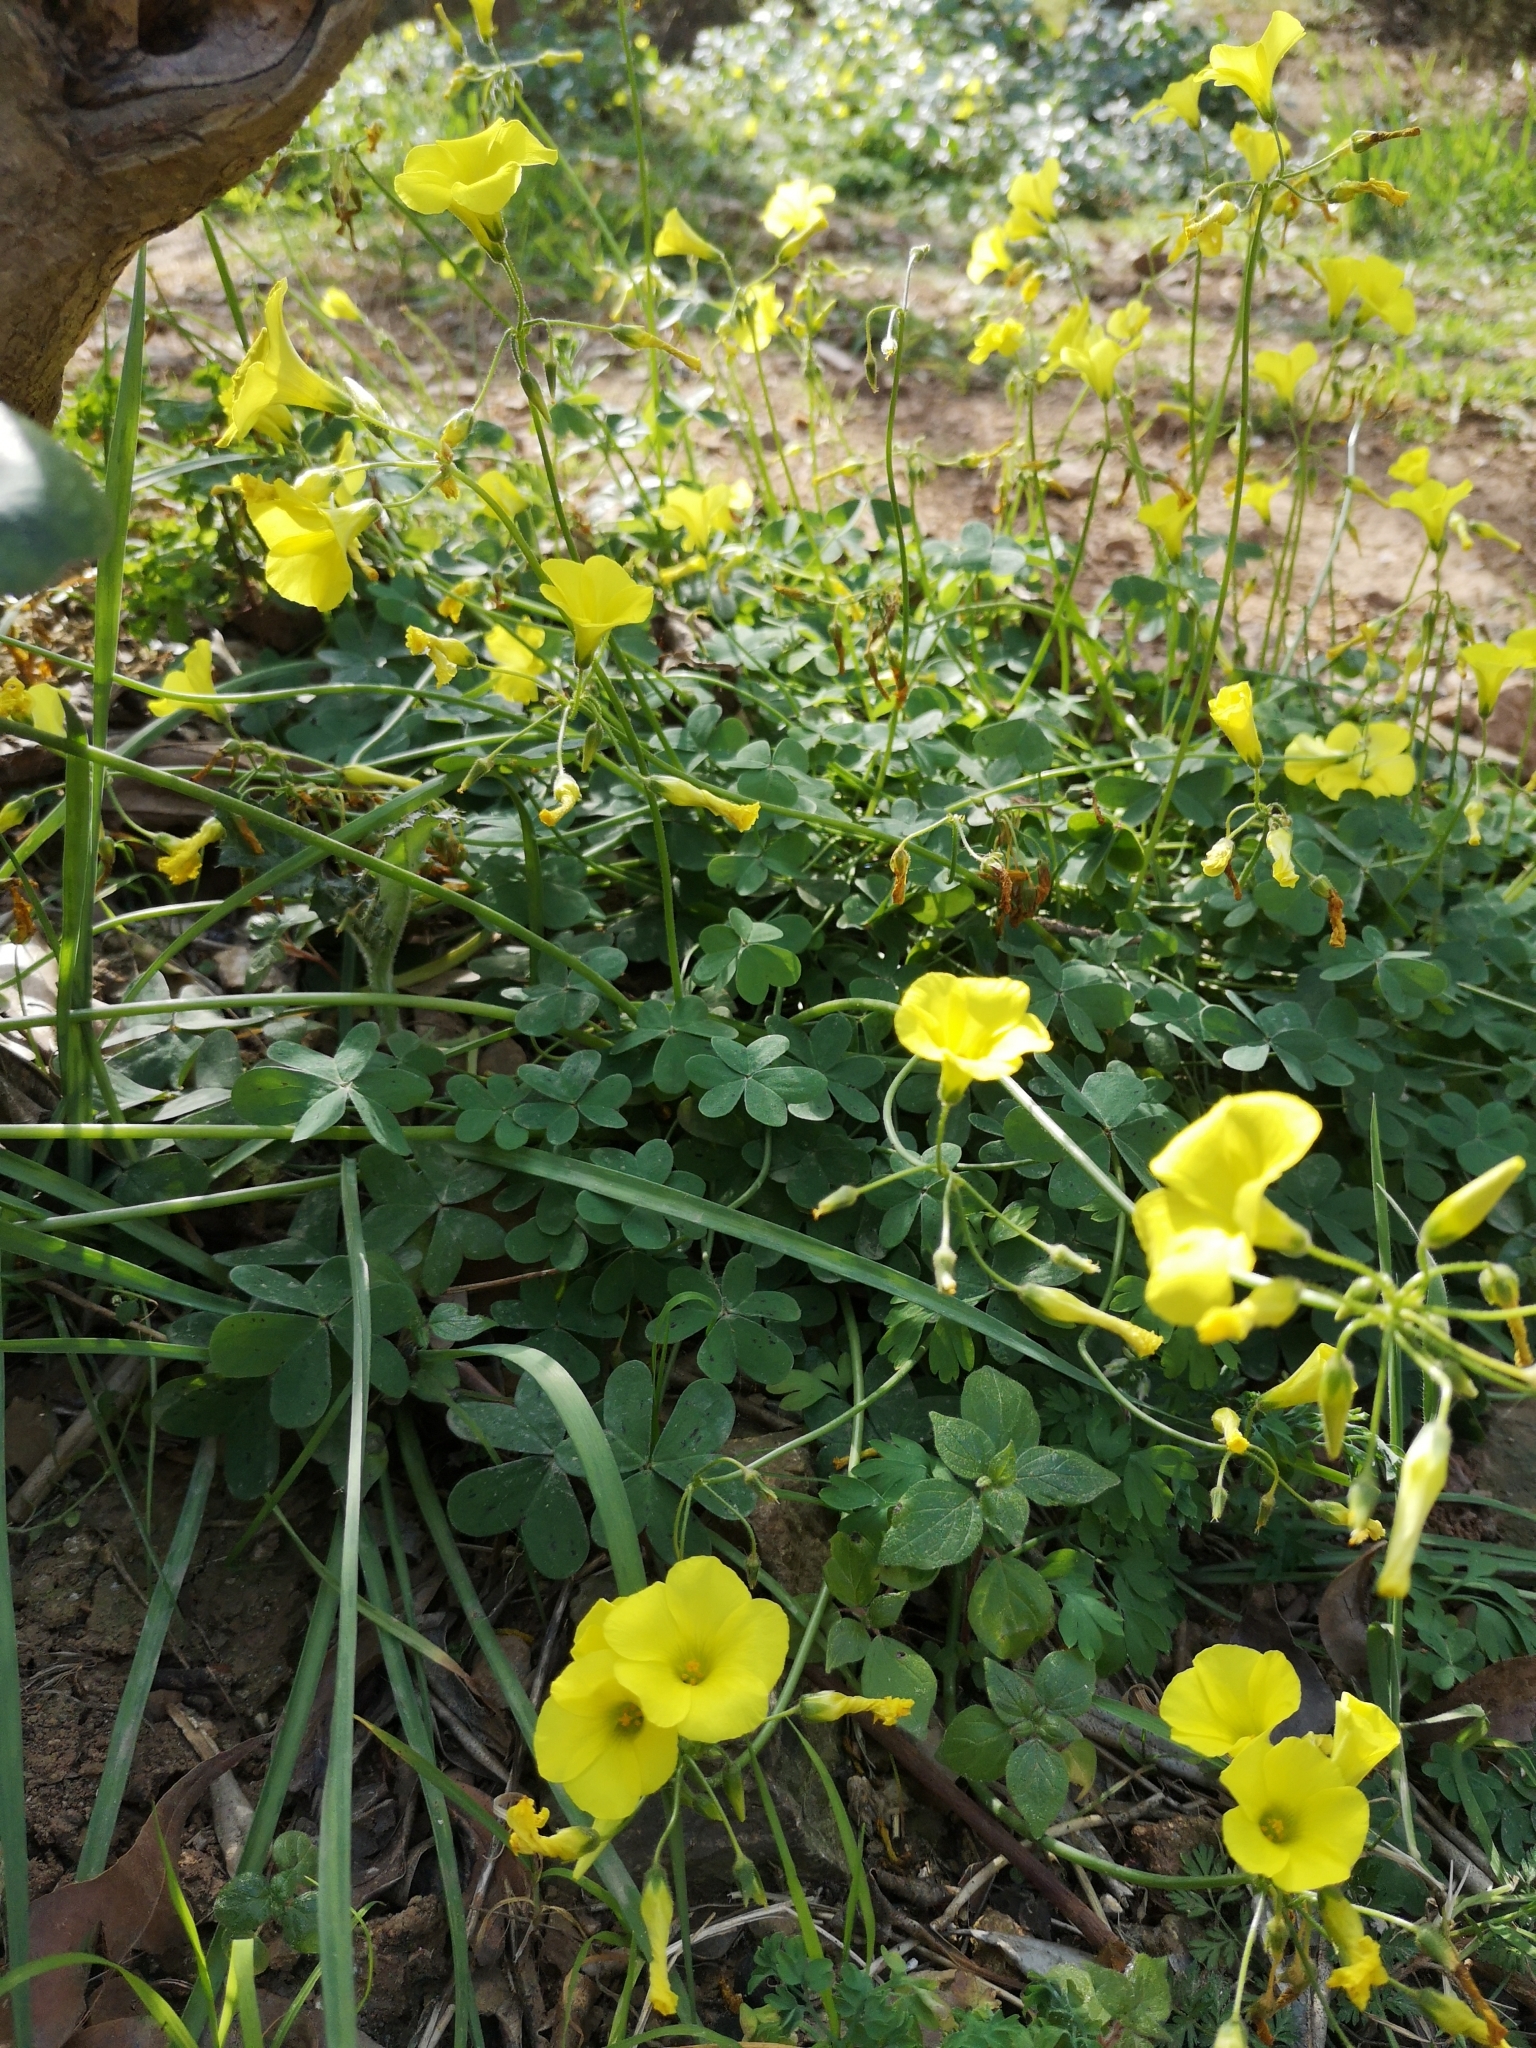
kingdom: Plantae
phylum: Tracheophyta
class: Magnoliopsida
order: Oxalidales
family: Oxalidaceae
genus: Oxalis
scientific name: Oxalis pes-caprae
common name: Bermuda-buttercup
